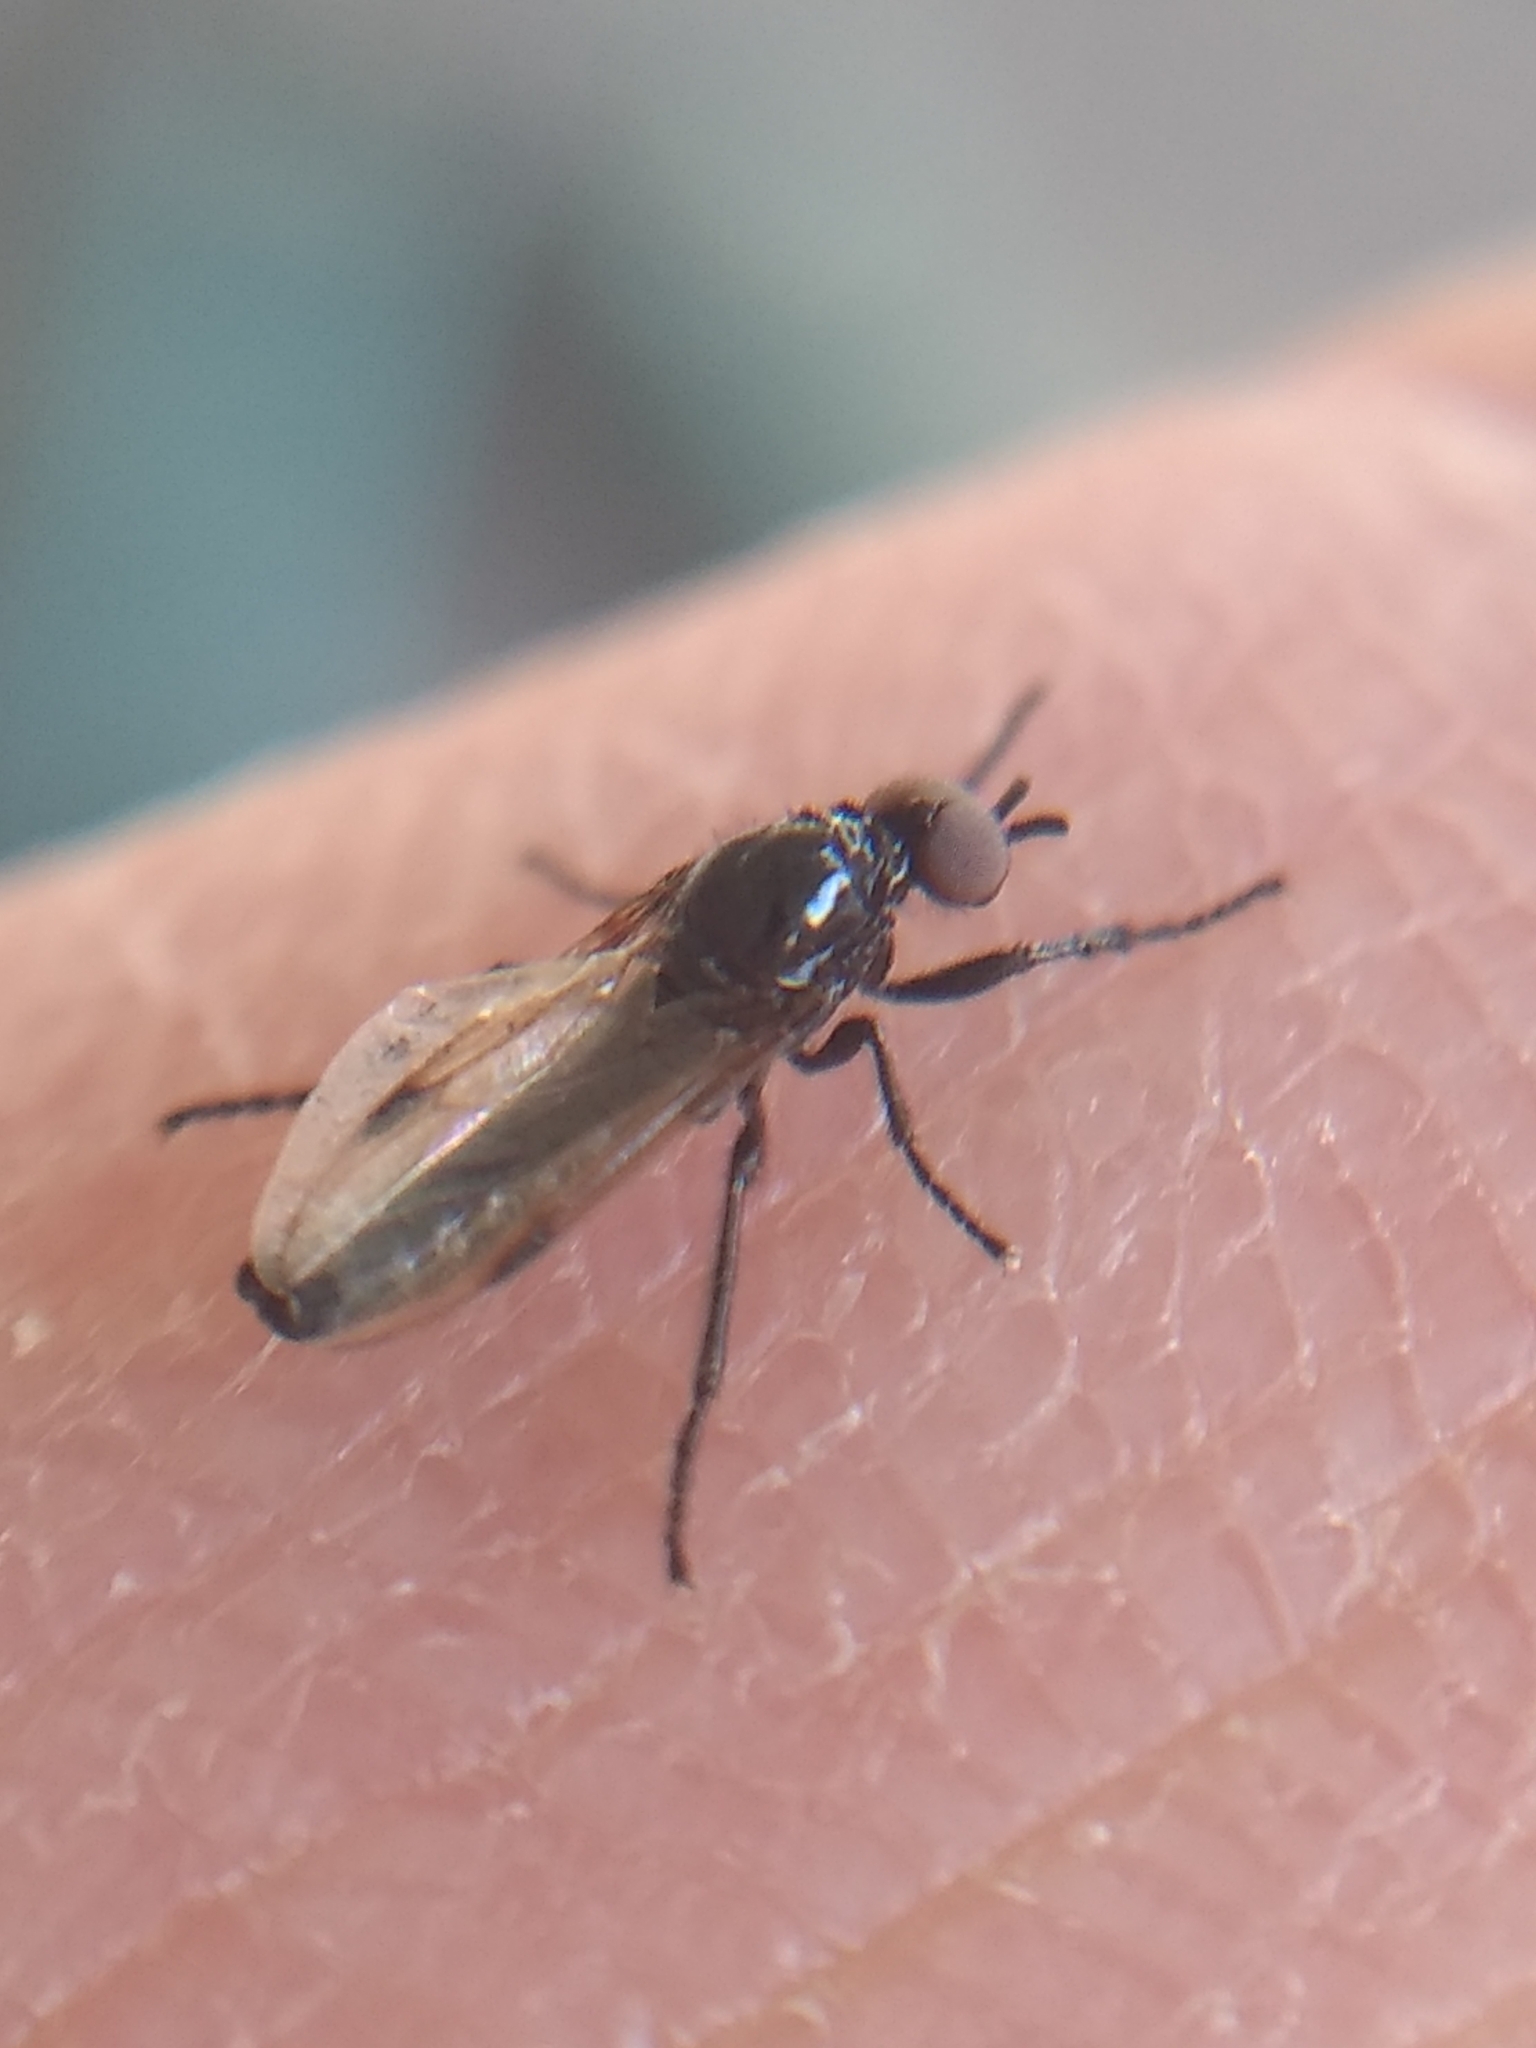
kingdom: Animalia
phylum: Arthropoda
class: Insecta
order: Diptera
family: Bibionidae
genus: Dilophus
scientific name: Dilophus orbatus
